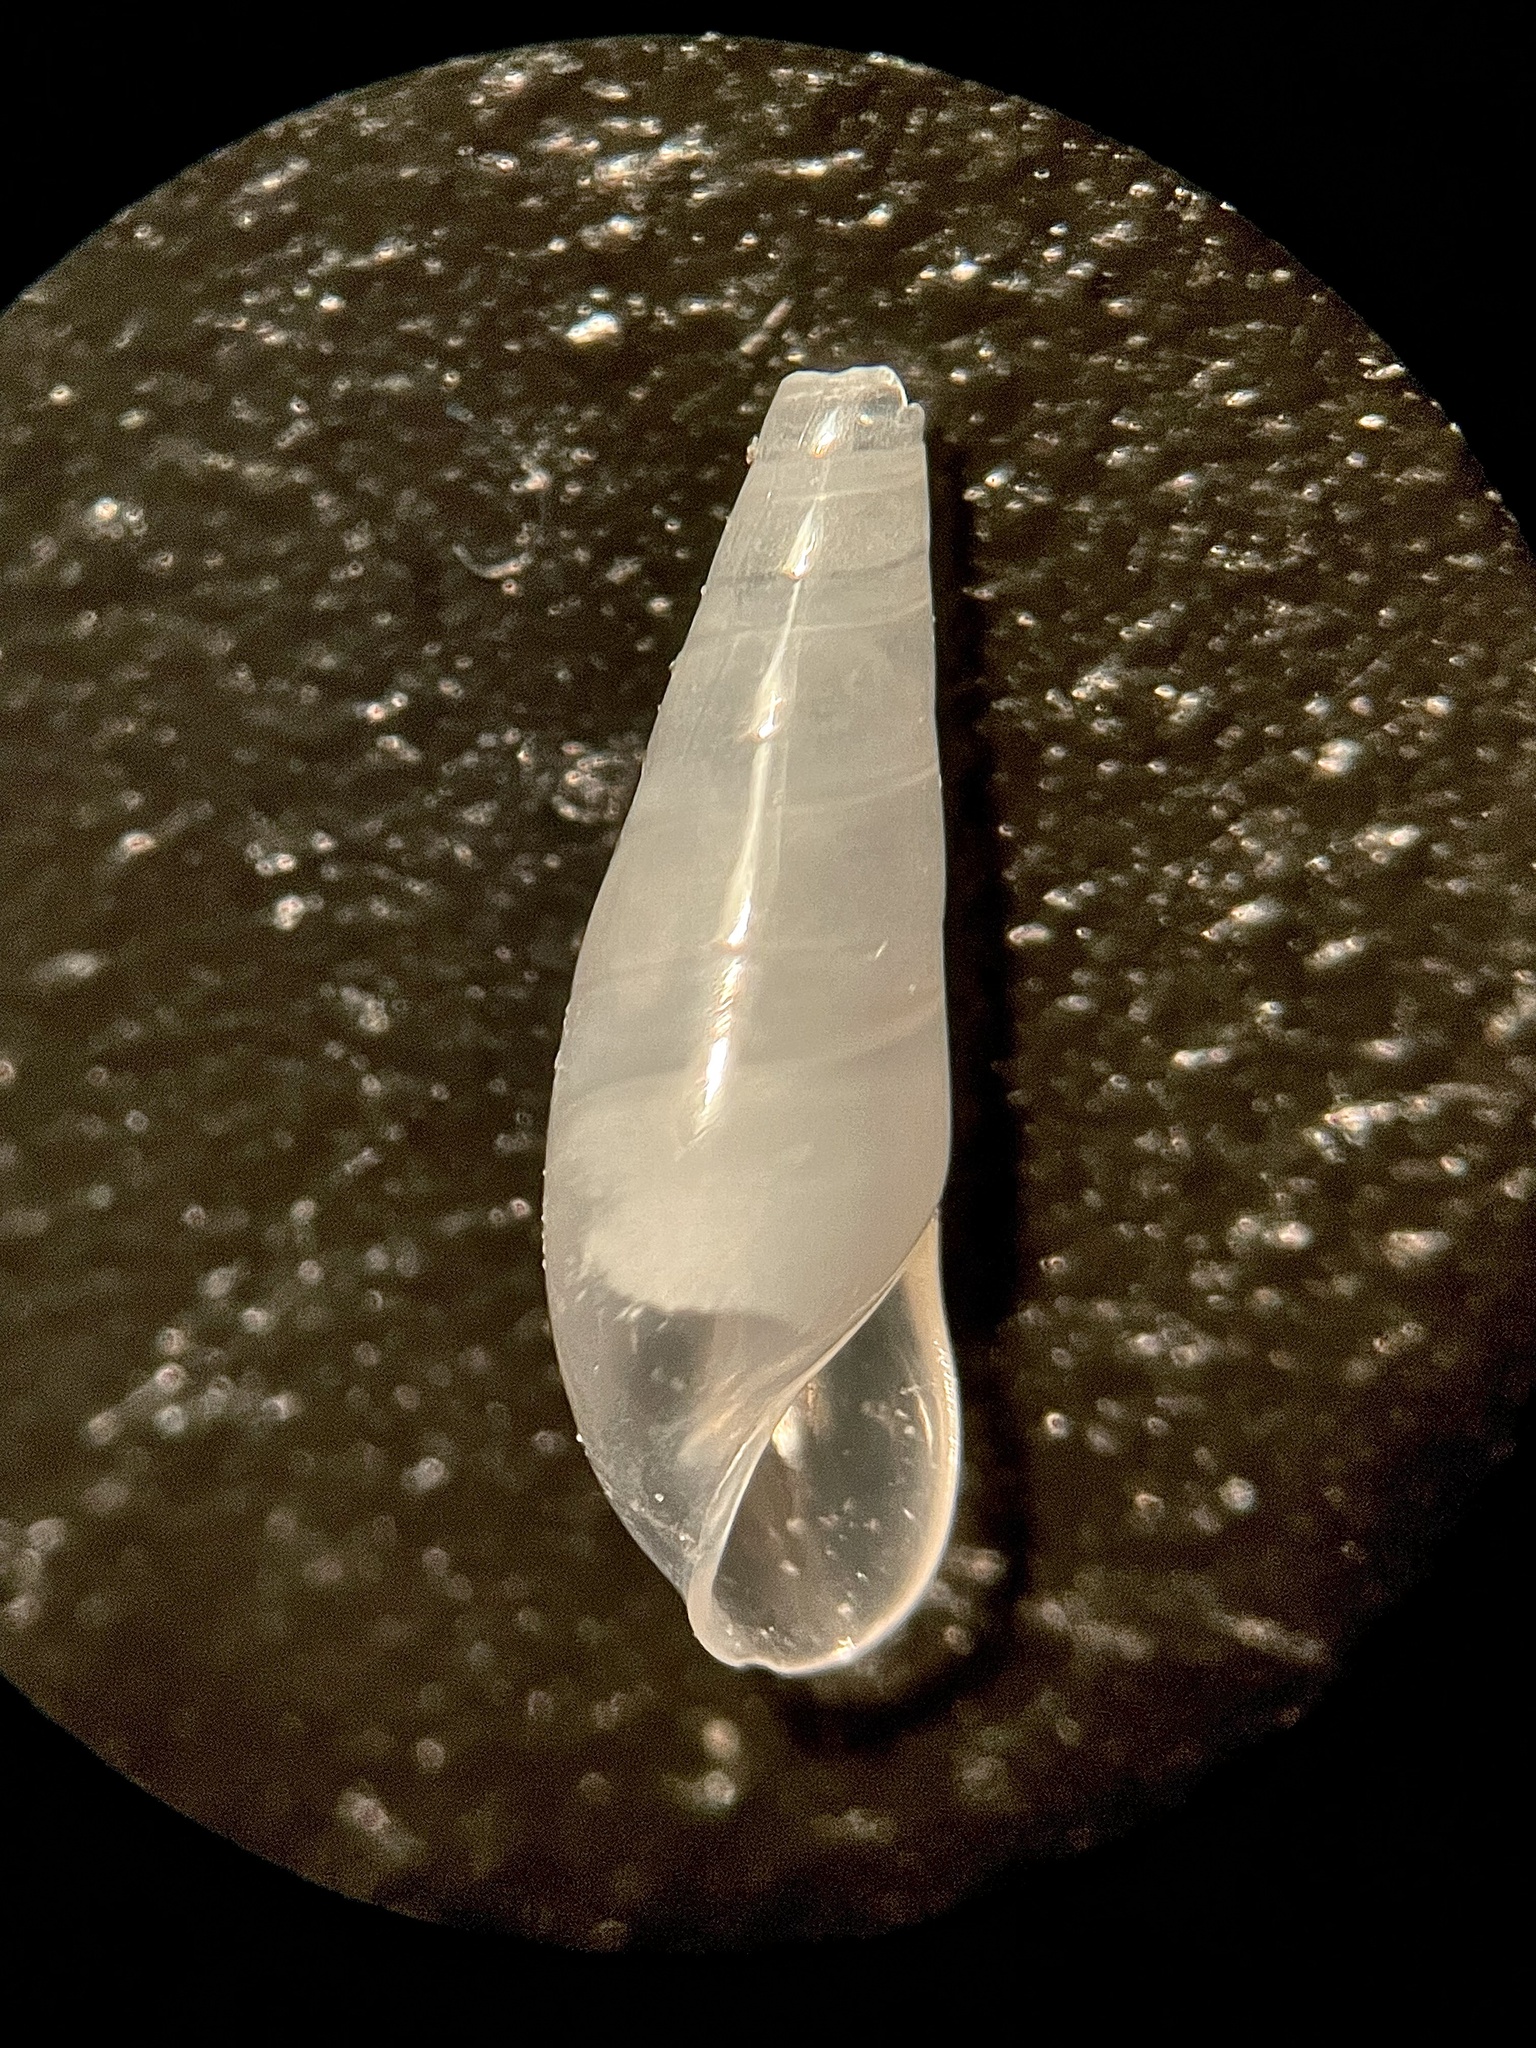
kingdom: Animalia
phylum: Mollusca
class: Gastropoda
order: Littorinimorpha
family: Eulimidae
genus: Vitreolina
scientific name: Vitreolina bermudezi
